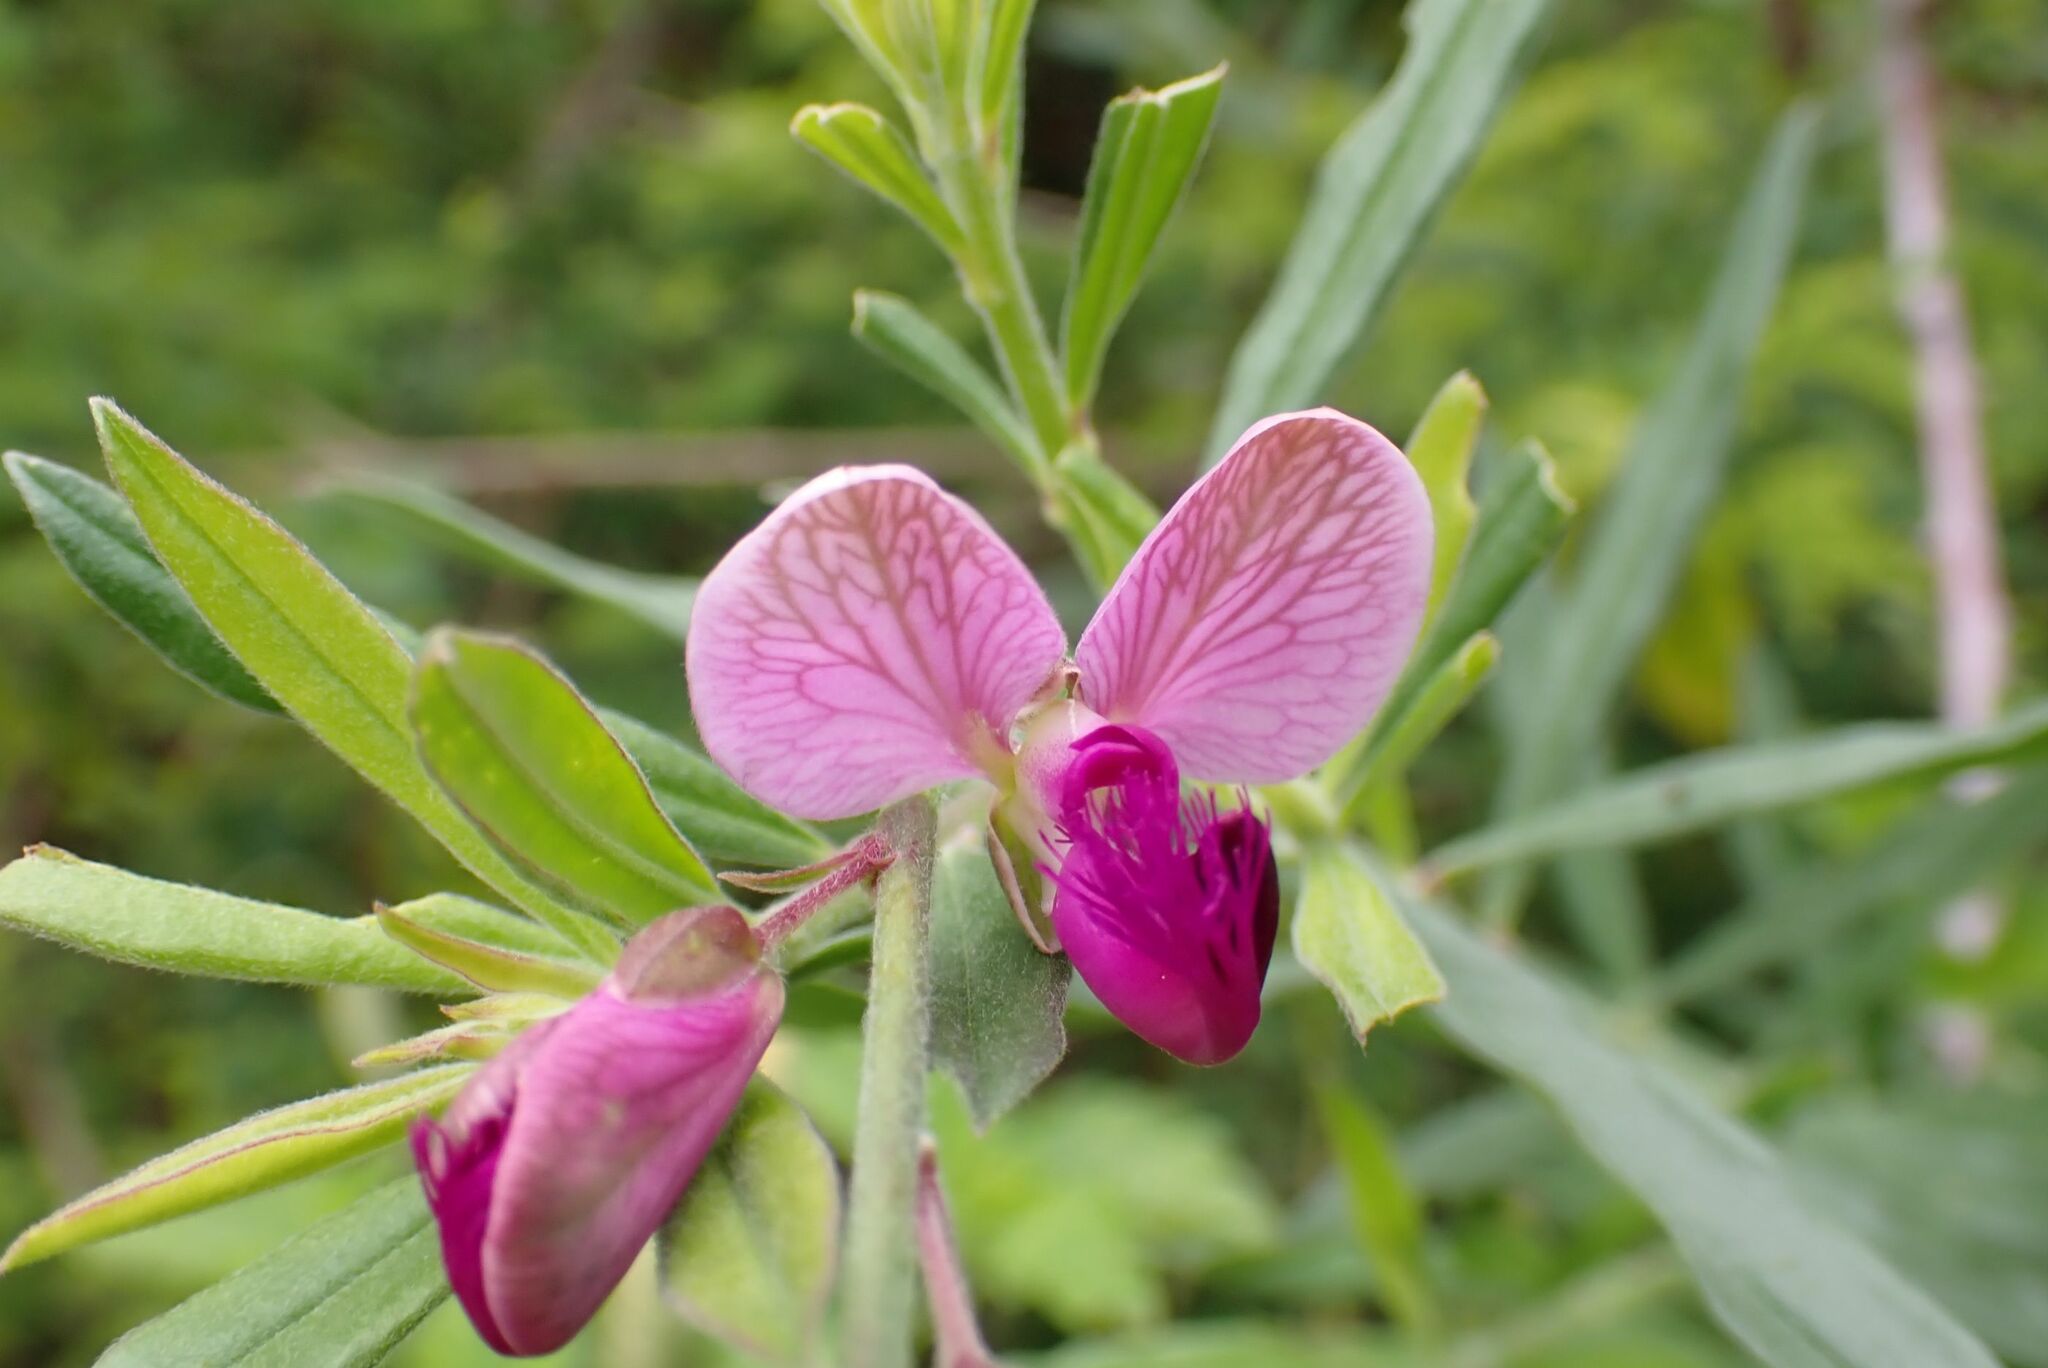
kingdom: Plantae
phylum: Tracheophyta
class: Magnoliopsida
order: Fabales
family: Polygalaceae
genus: Polygala
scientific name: Polygala virgata
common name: Milkwort
